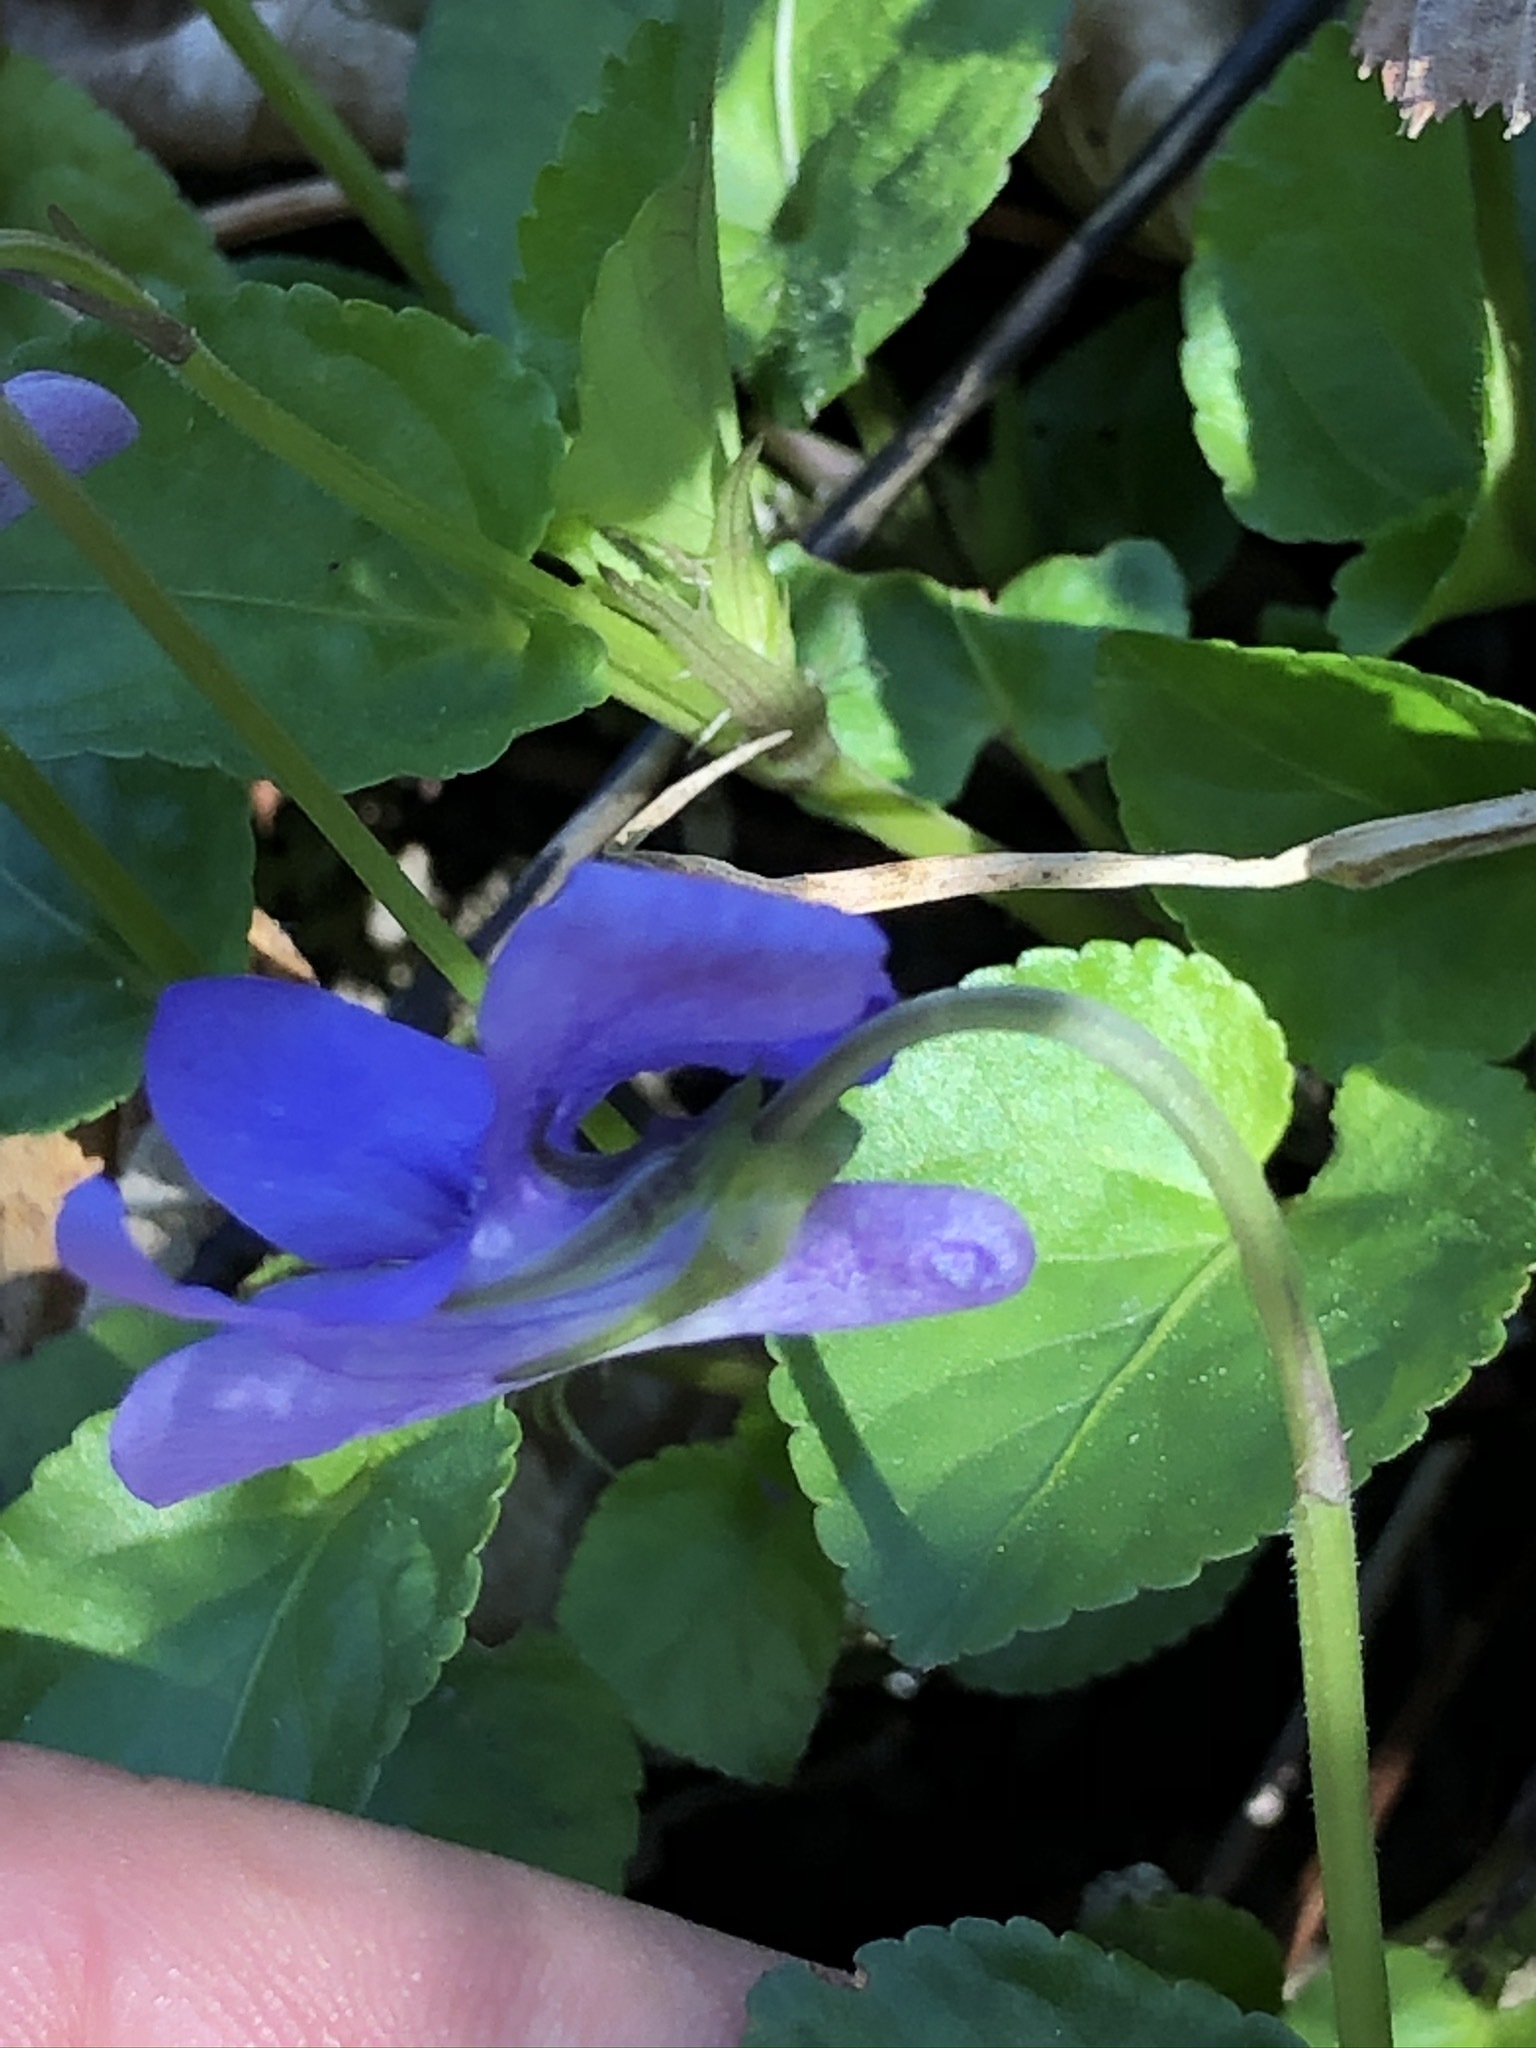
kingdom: Plantae
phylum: Tracheophyta
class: Magnoliopsida
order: Malpighiales
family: Violaceae
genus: Viola
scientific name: Viola reichenbachiana
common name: Early dog-violet
